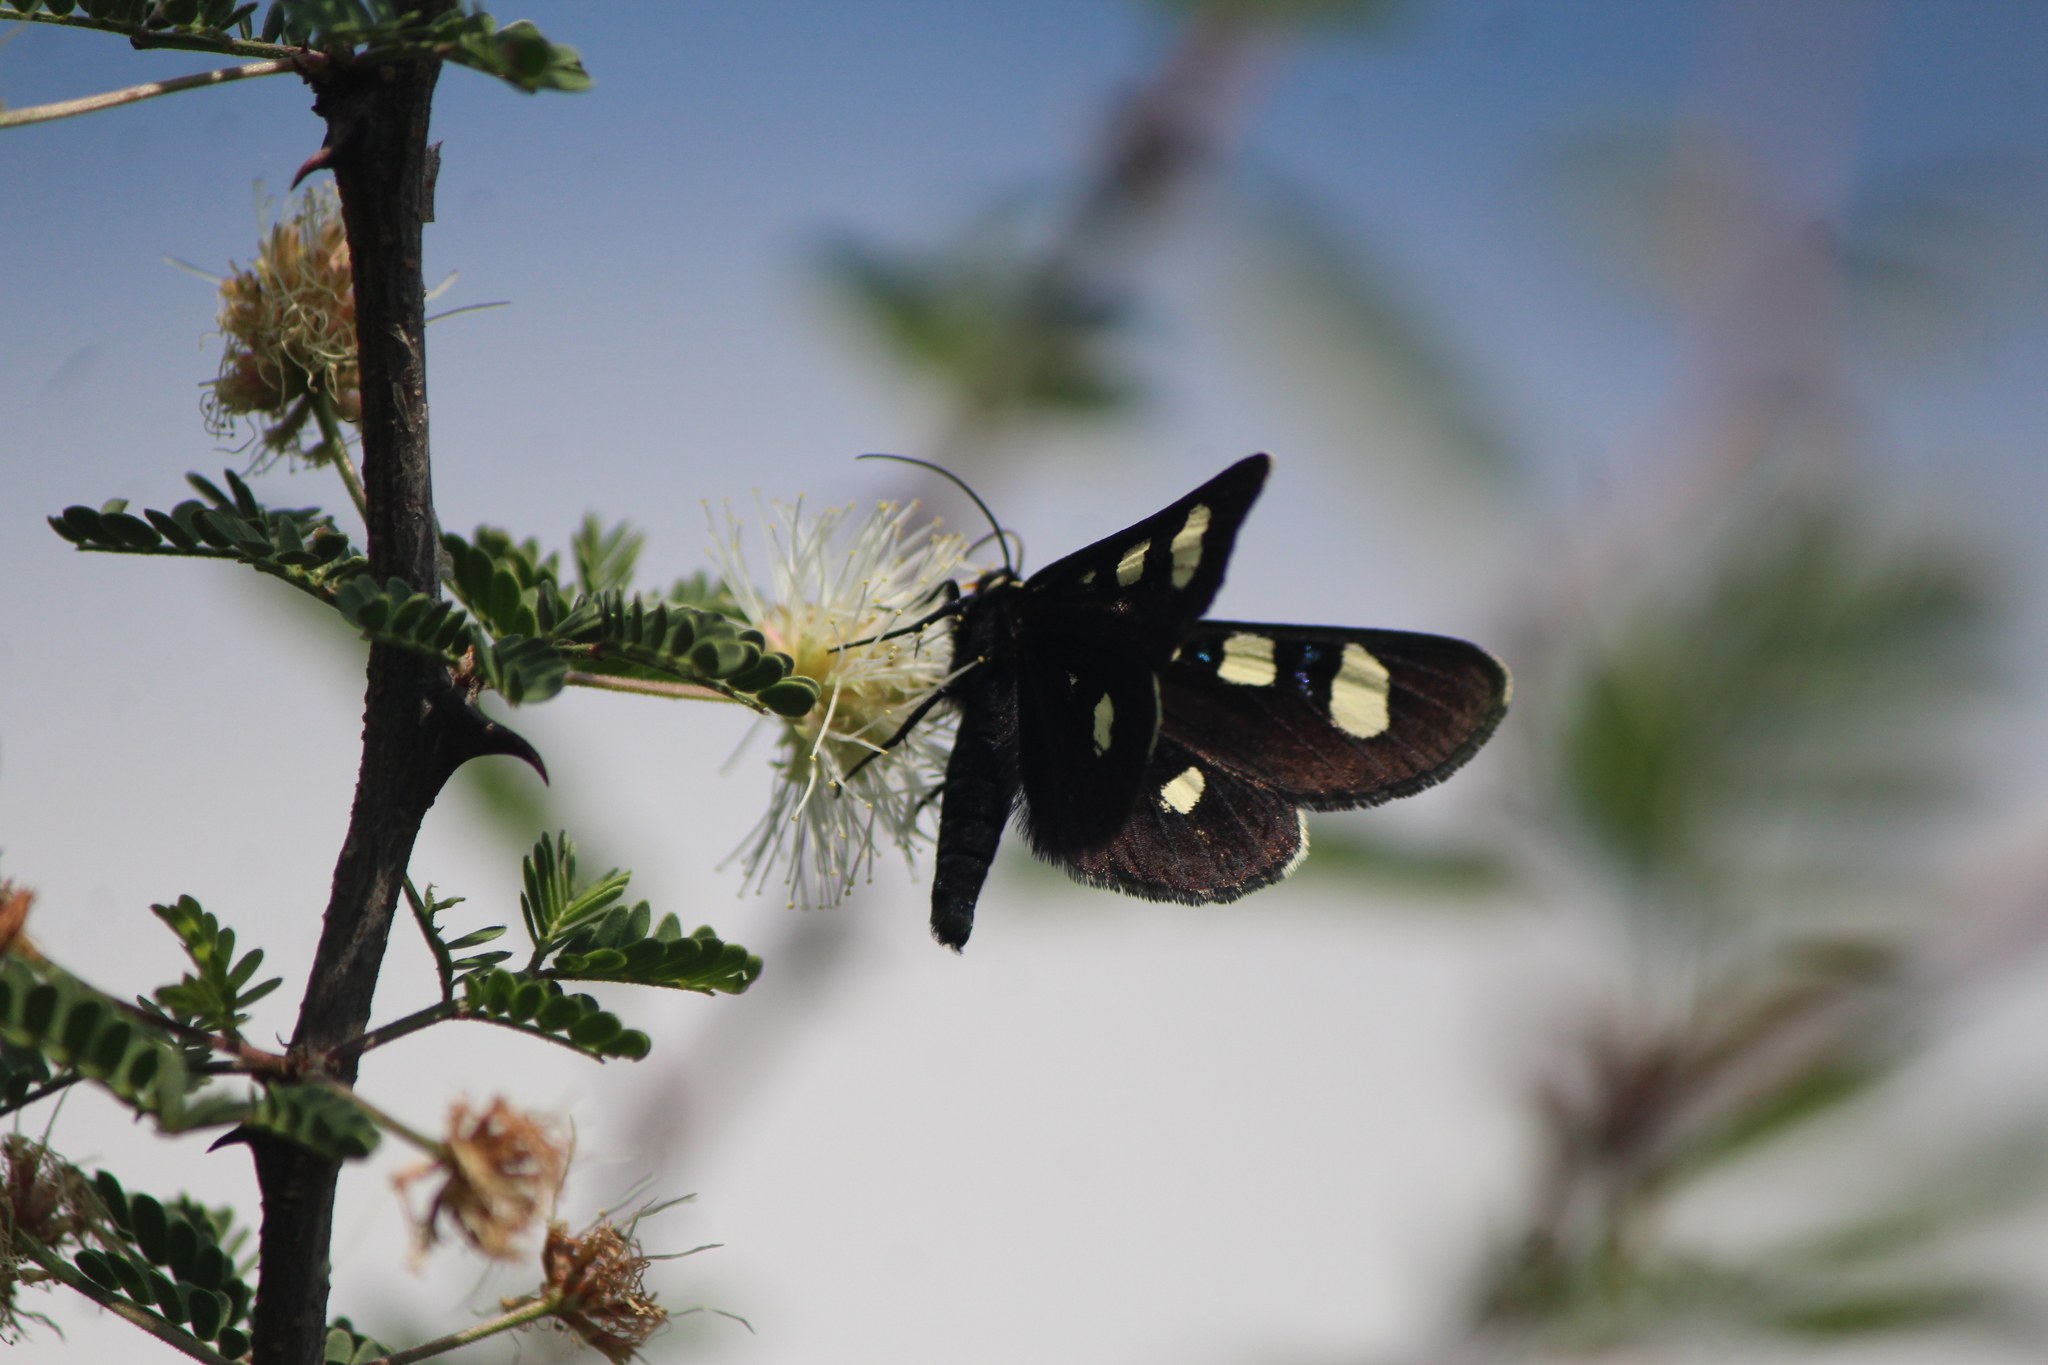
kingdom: Animalia
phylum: Arthropoda
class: Insecta
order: Lepidoptera
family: Noctuidae
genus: Alypiodes
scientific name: Alypiodes bimaculata
